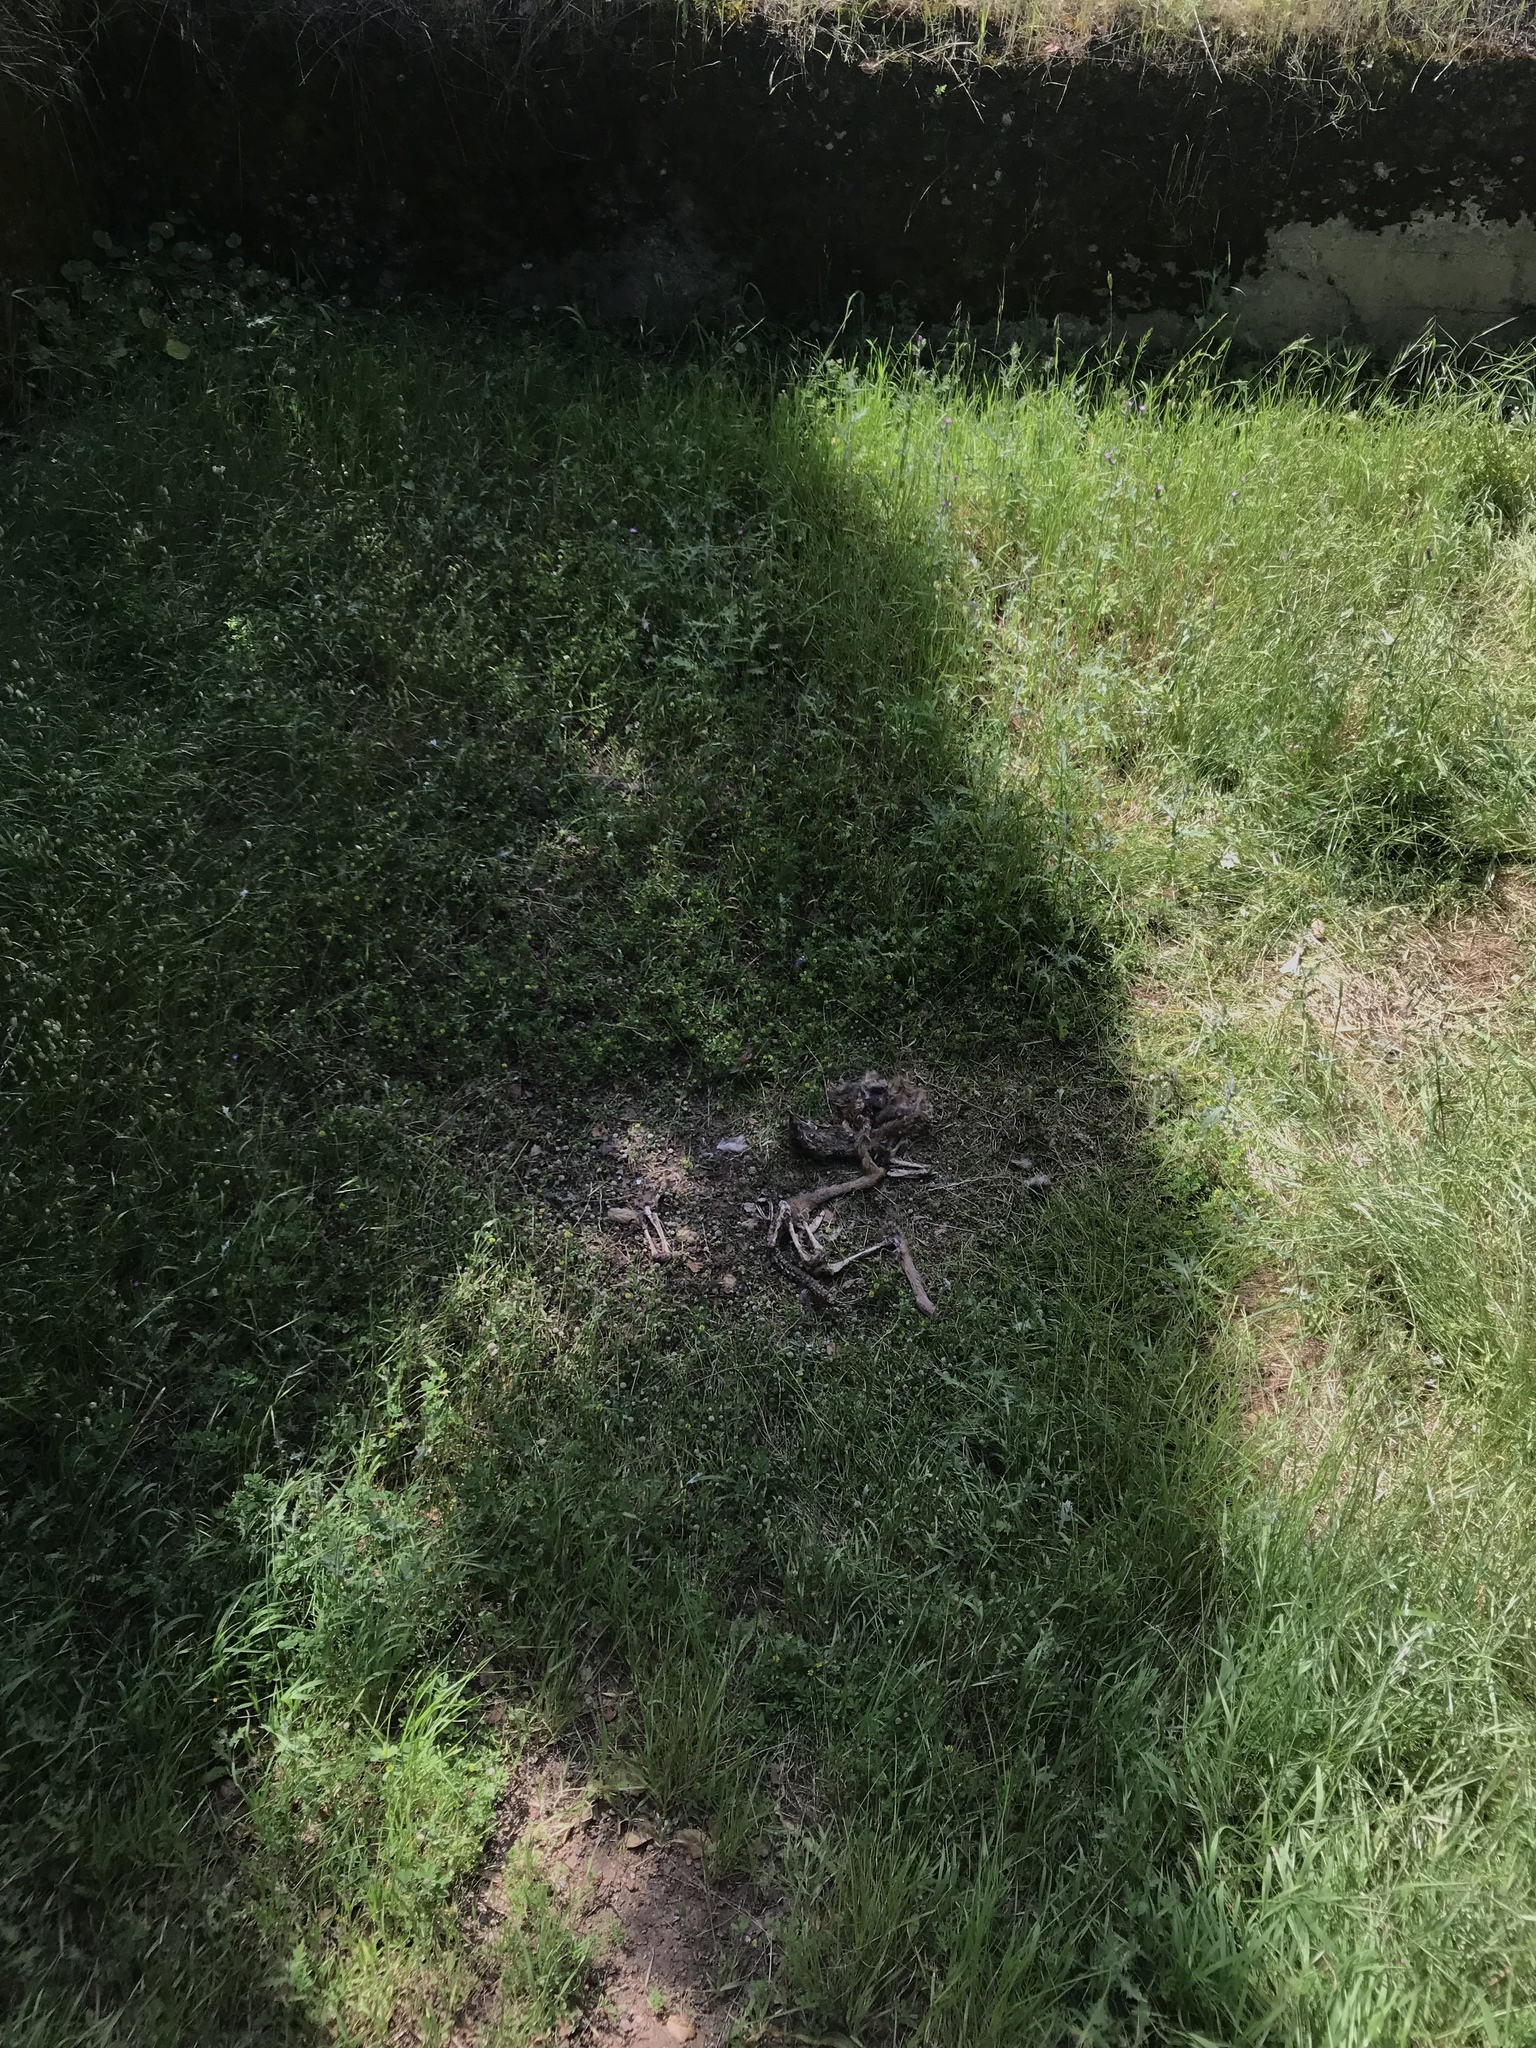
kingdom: Animalia
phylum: Chordata
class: Mammalia
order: Artiodactyla
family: Cervidae
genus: Odocoileus
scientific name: Odocoileus hemionus
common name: Mule deer
